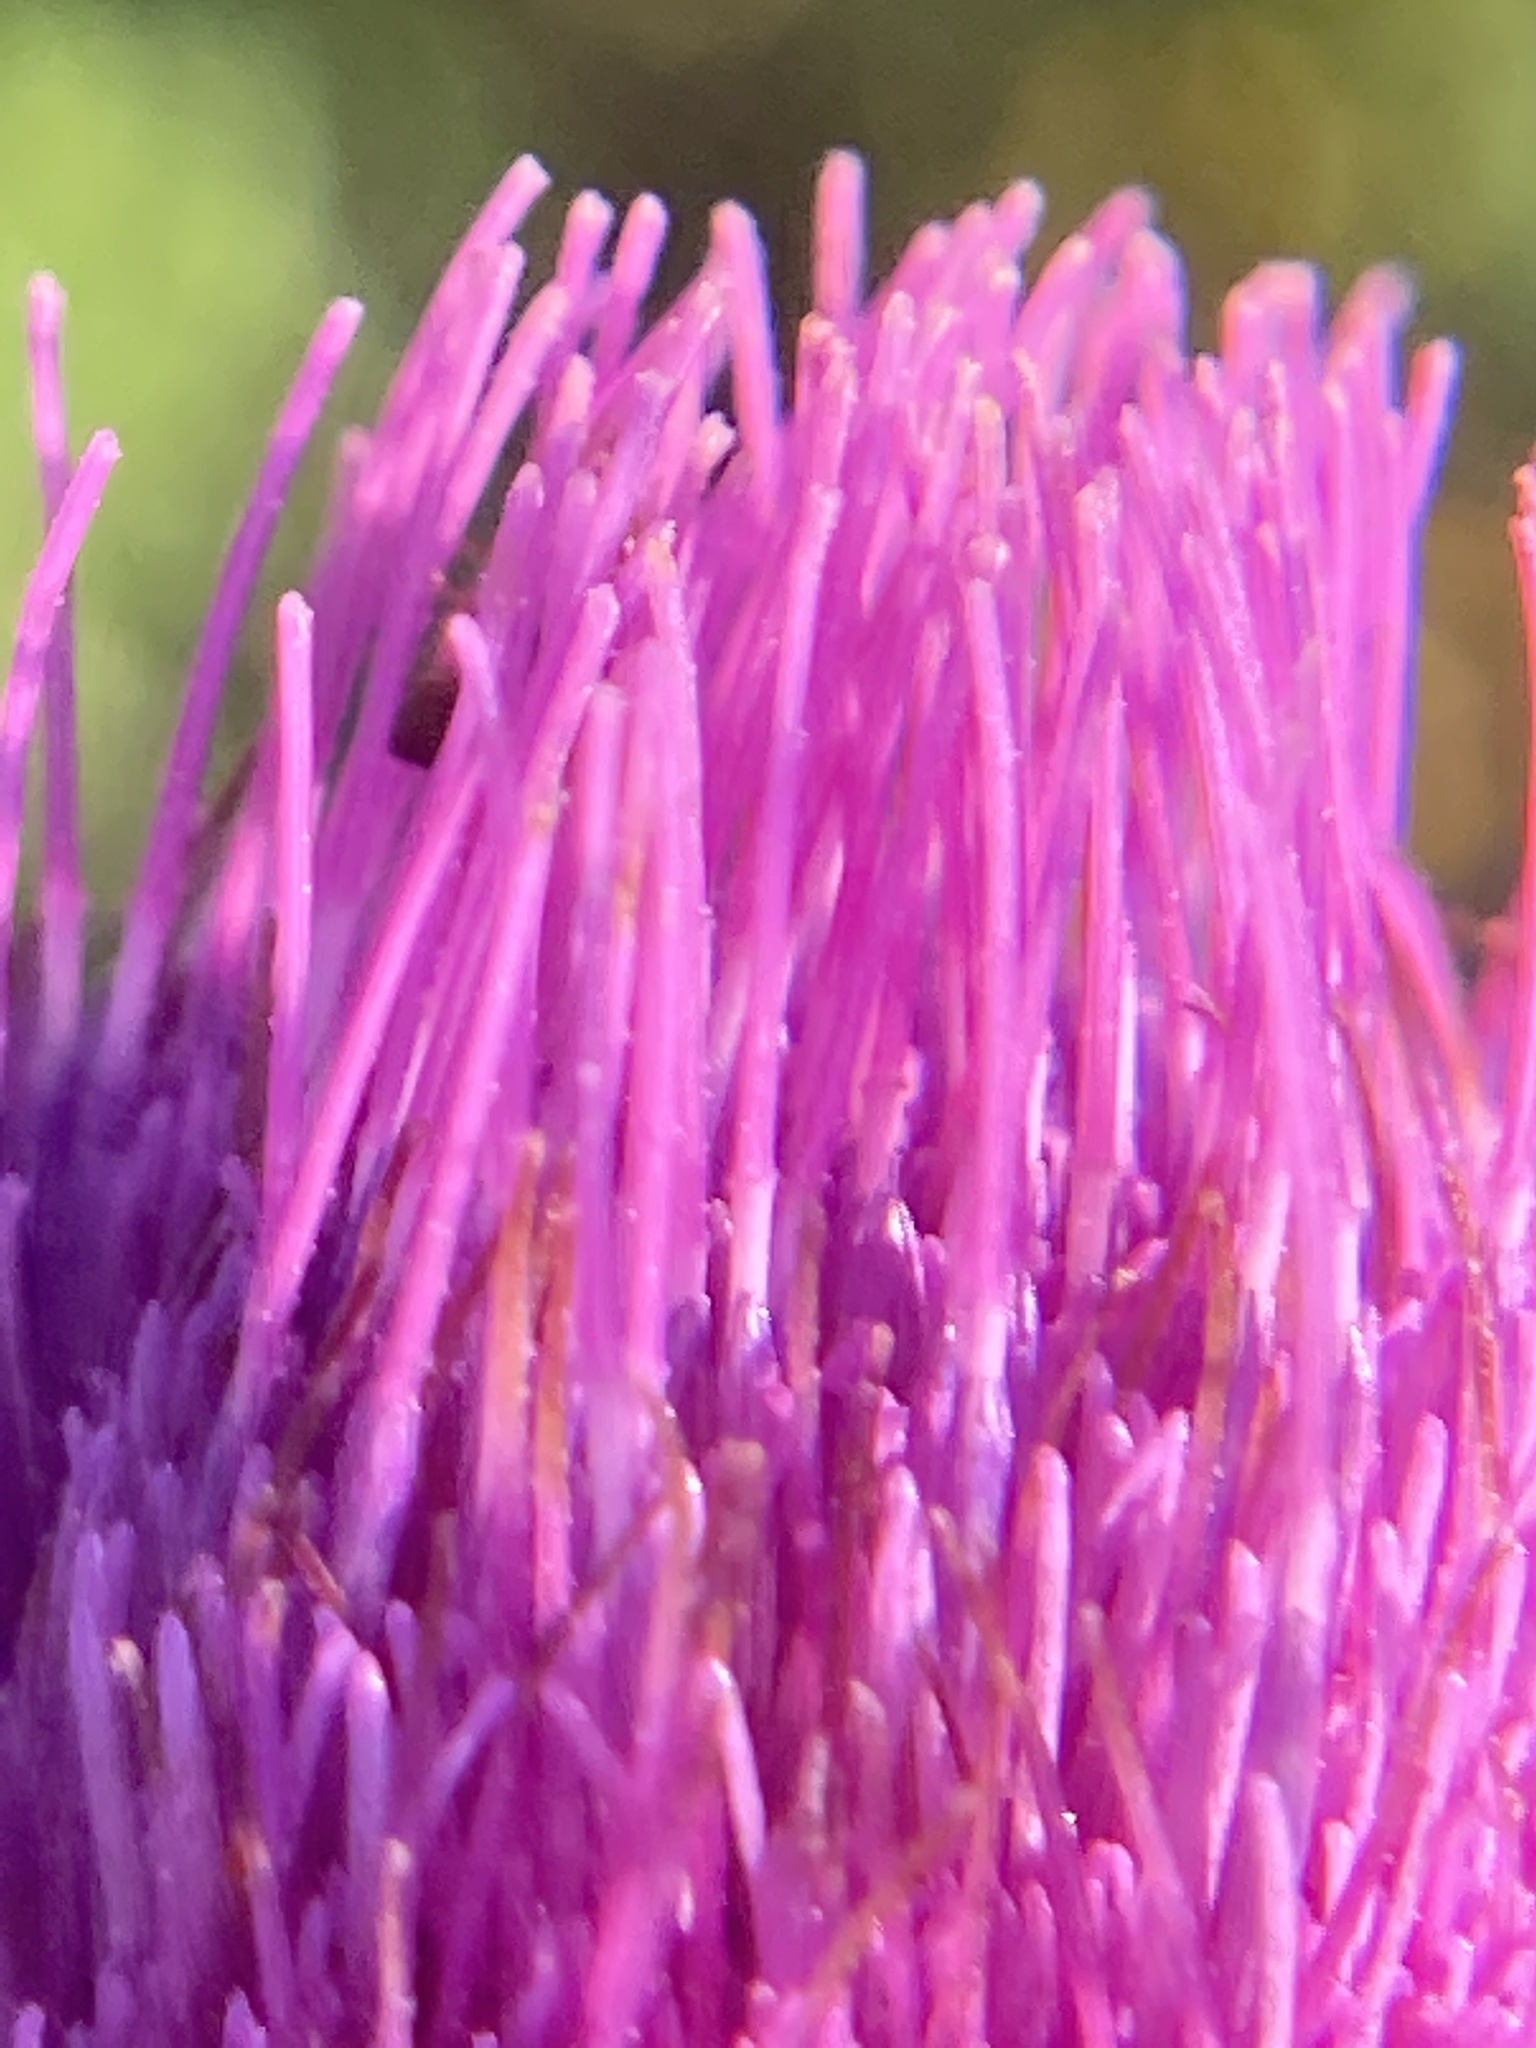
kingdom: Plantae
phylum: Tracheophyta
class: Magnoliopsida
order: Asterales
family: Asteraceae
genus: Cirsium
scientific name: Cirsium vulgare
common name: Bull thistle
